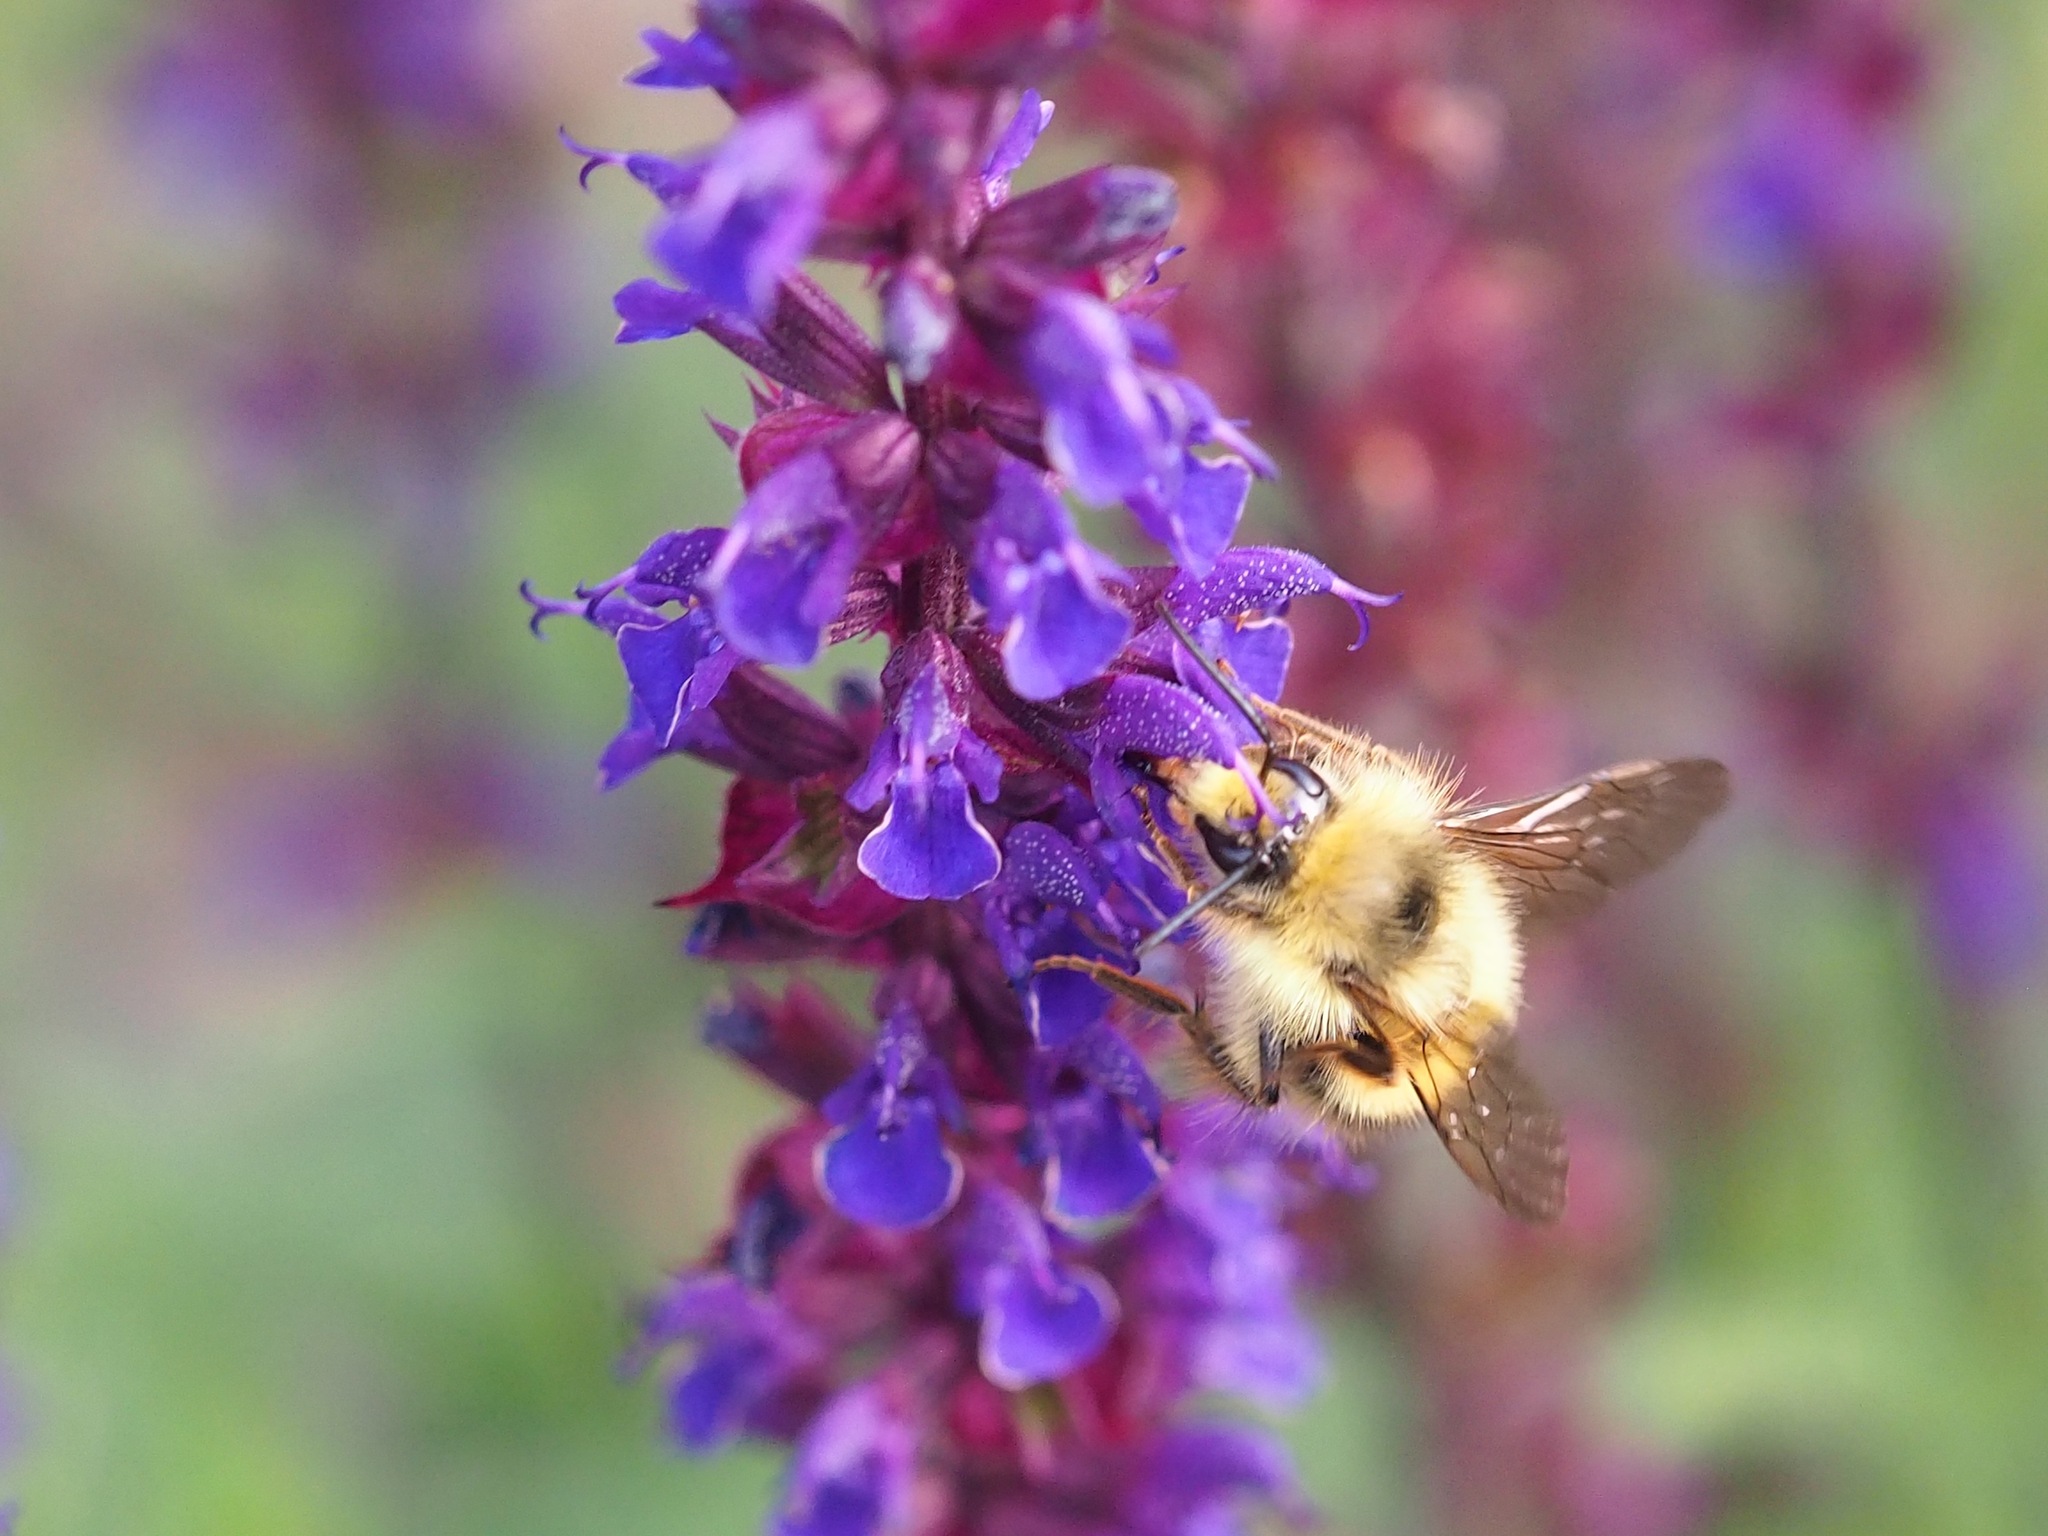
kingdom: Animalia
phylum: Arthropoda
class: Insecta
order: Hymenoptera
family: Apidae
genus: Bombus
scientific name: Bombus mixtus
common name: Fuzzy-horned bumble bee
